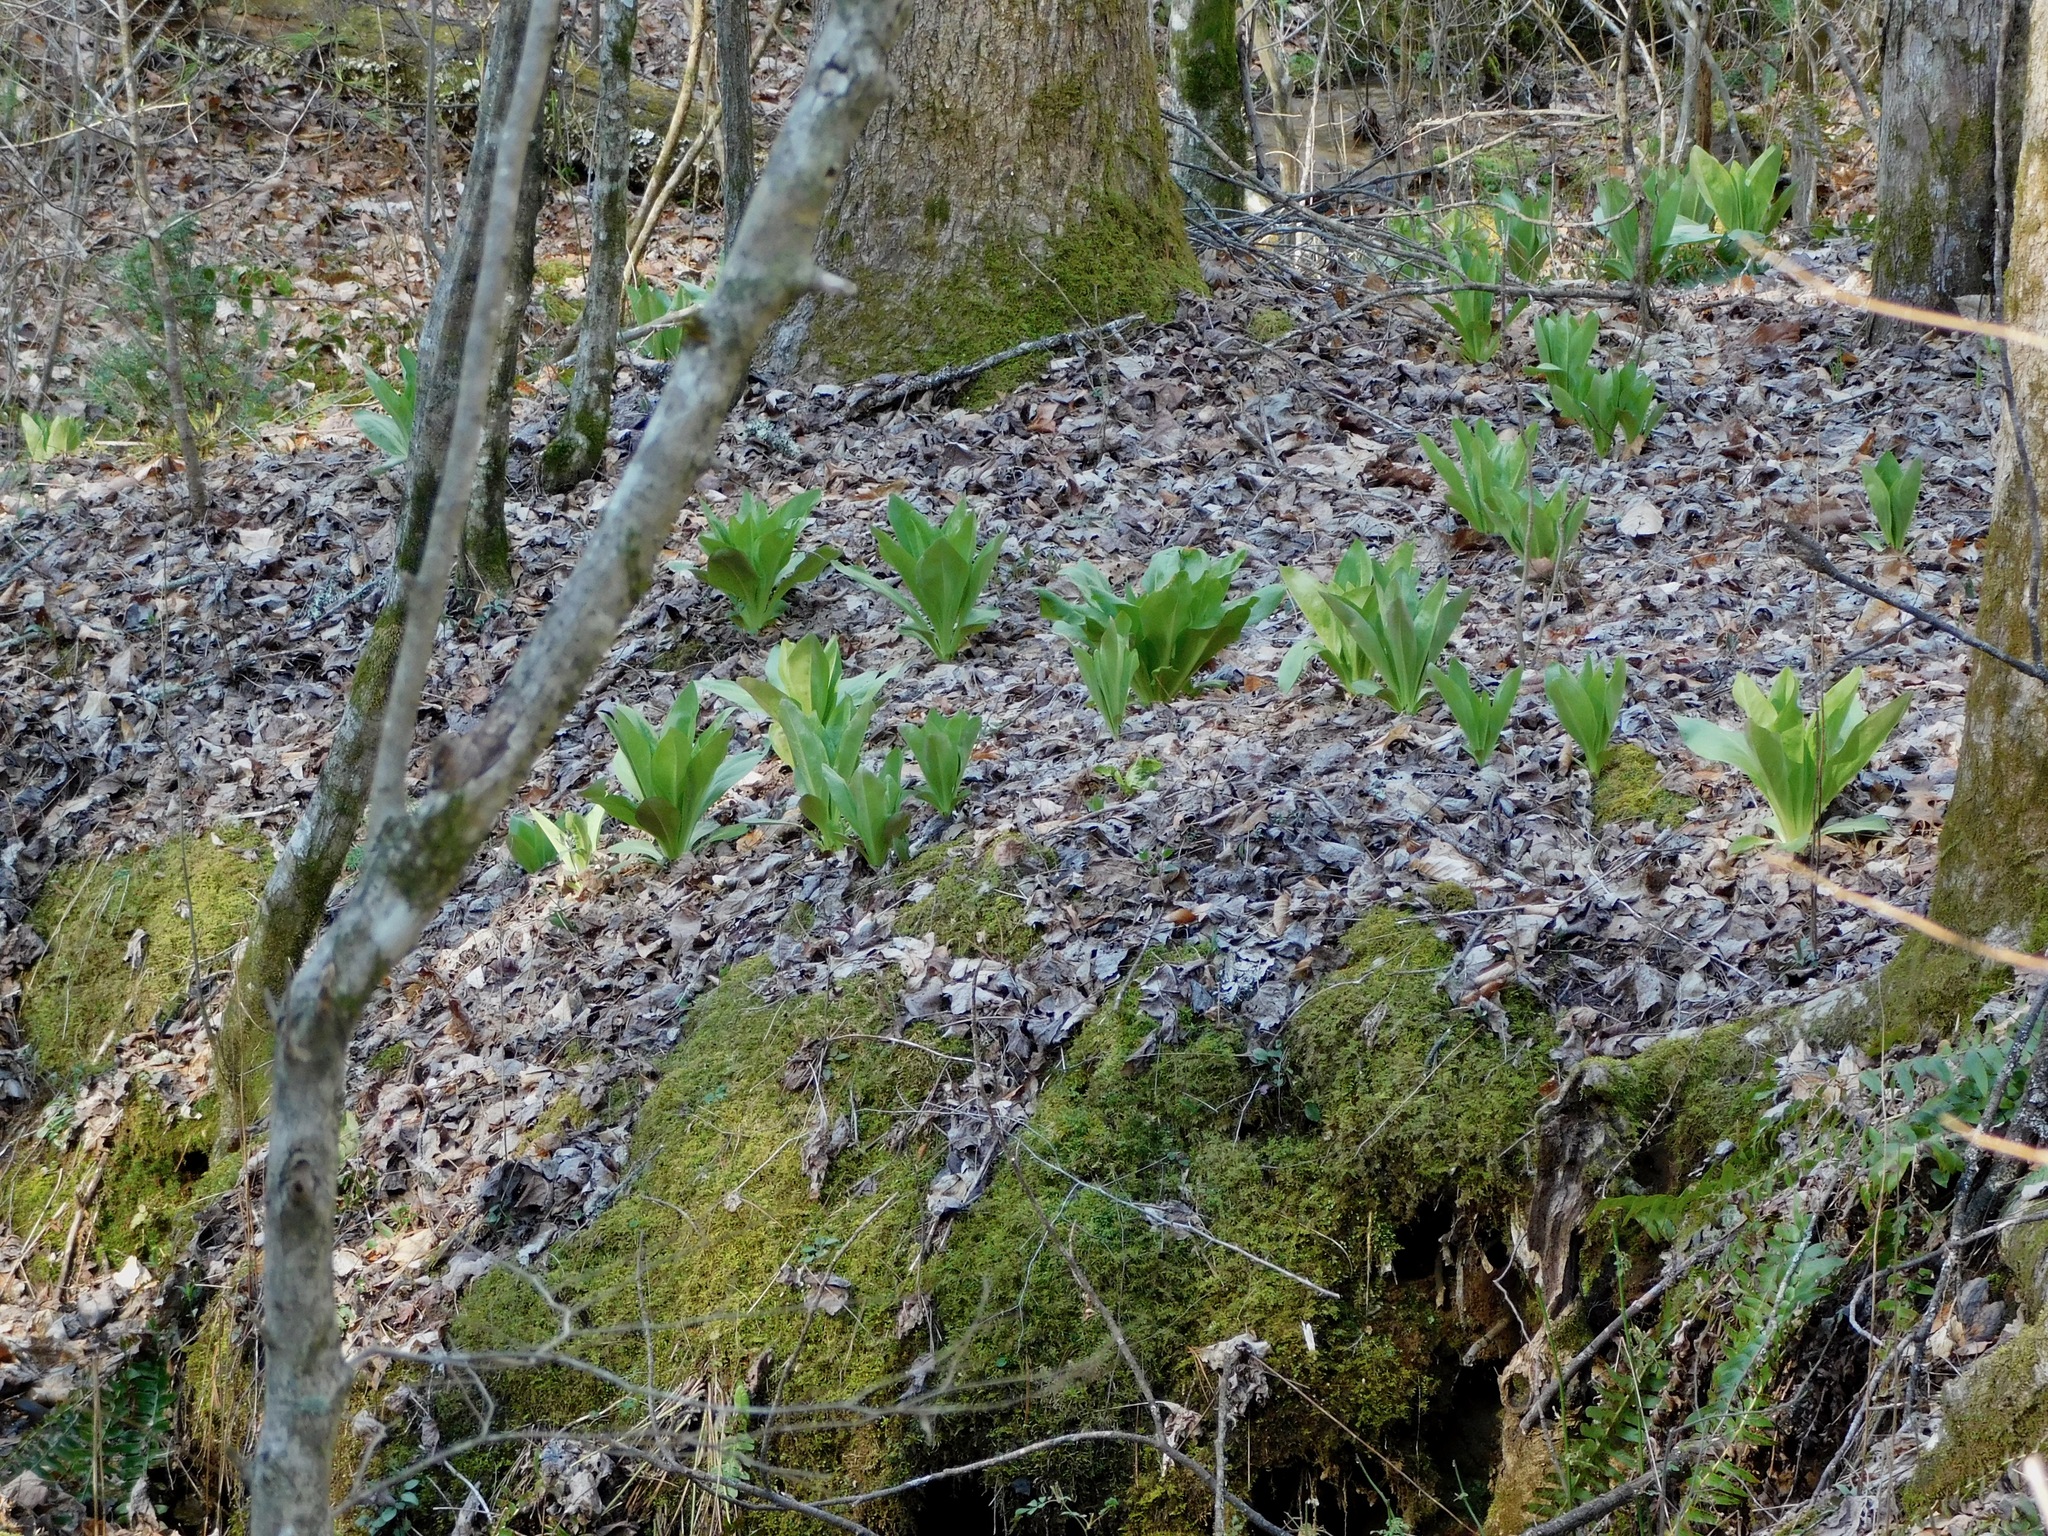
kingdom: Plantae
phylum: Tracheophyta
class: Magnoliopsida
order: Gentianales
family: Gentianaceae
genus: Frasera
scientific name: Frasera caroliniensis
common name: American columbo
